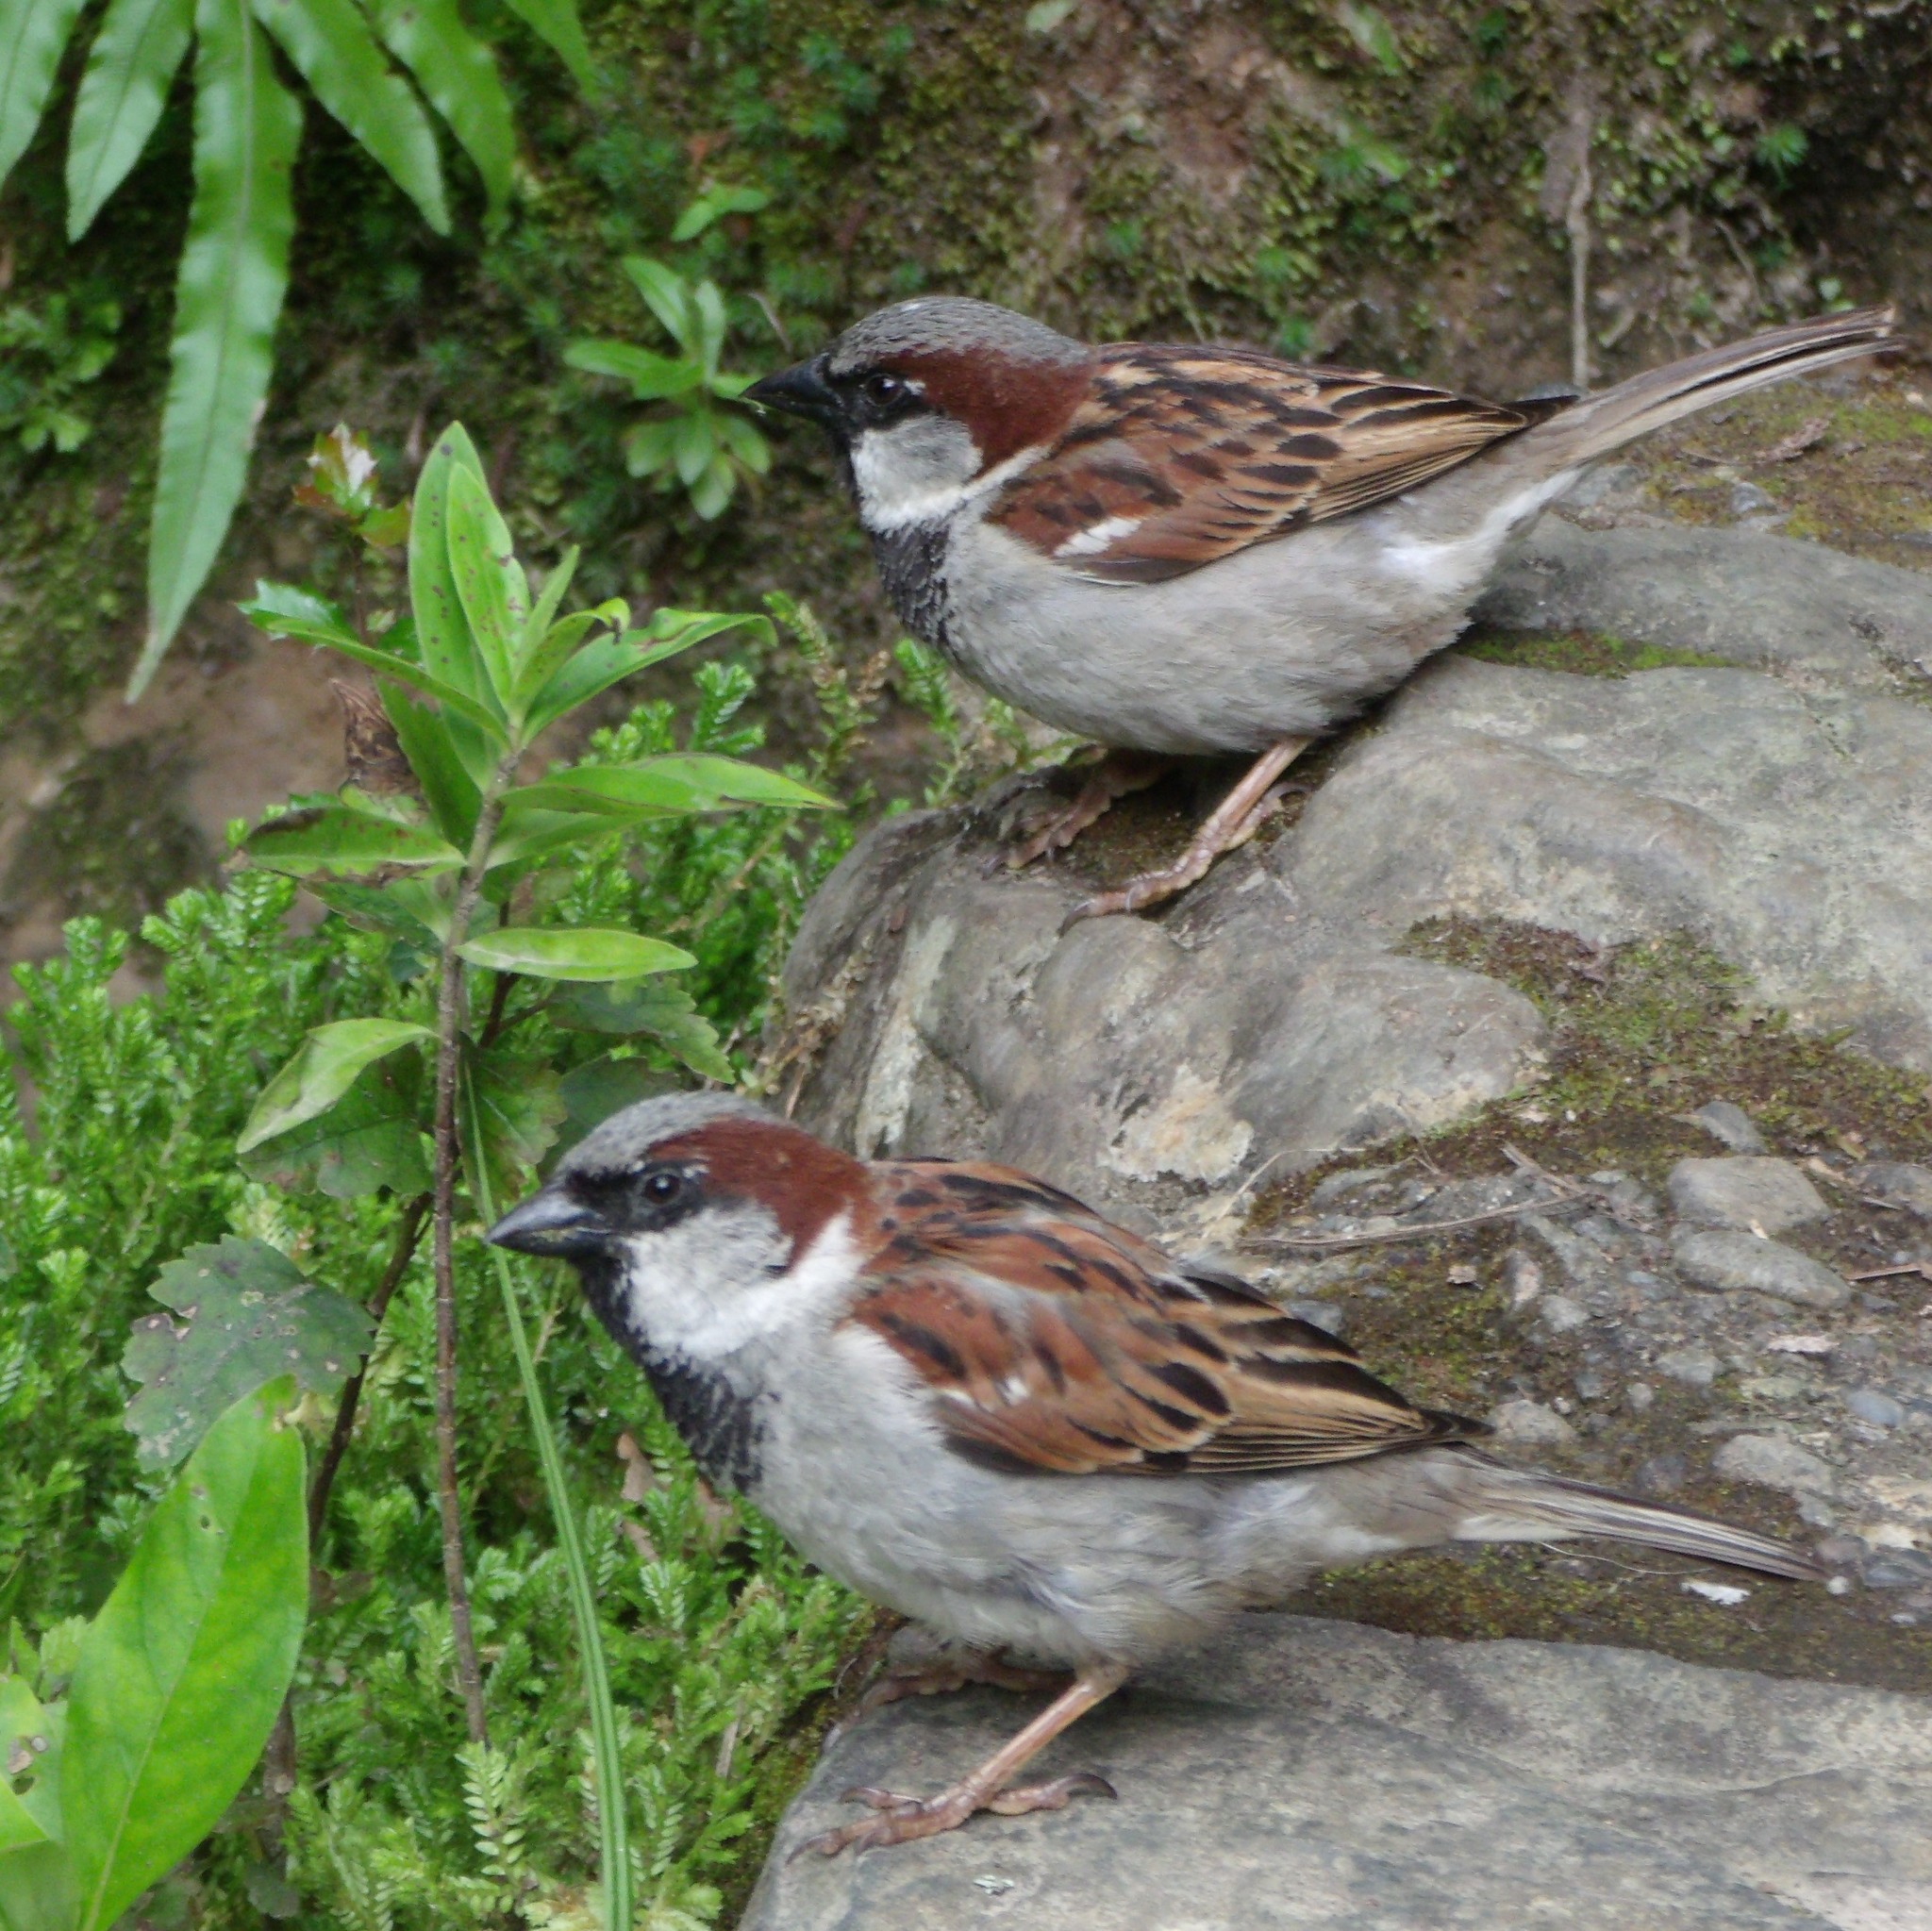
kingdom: Animalia
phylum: Chordata
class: Aves
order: Passeriformes
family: Passeridae
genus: Passer
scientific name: Passer domesticus
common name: House sparrow
